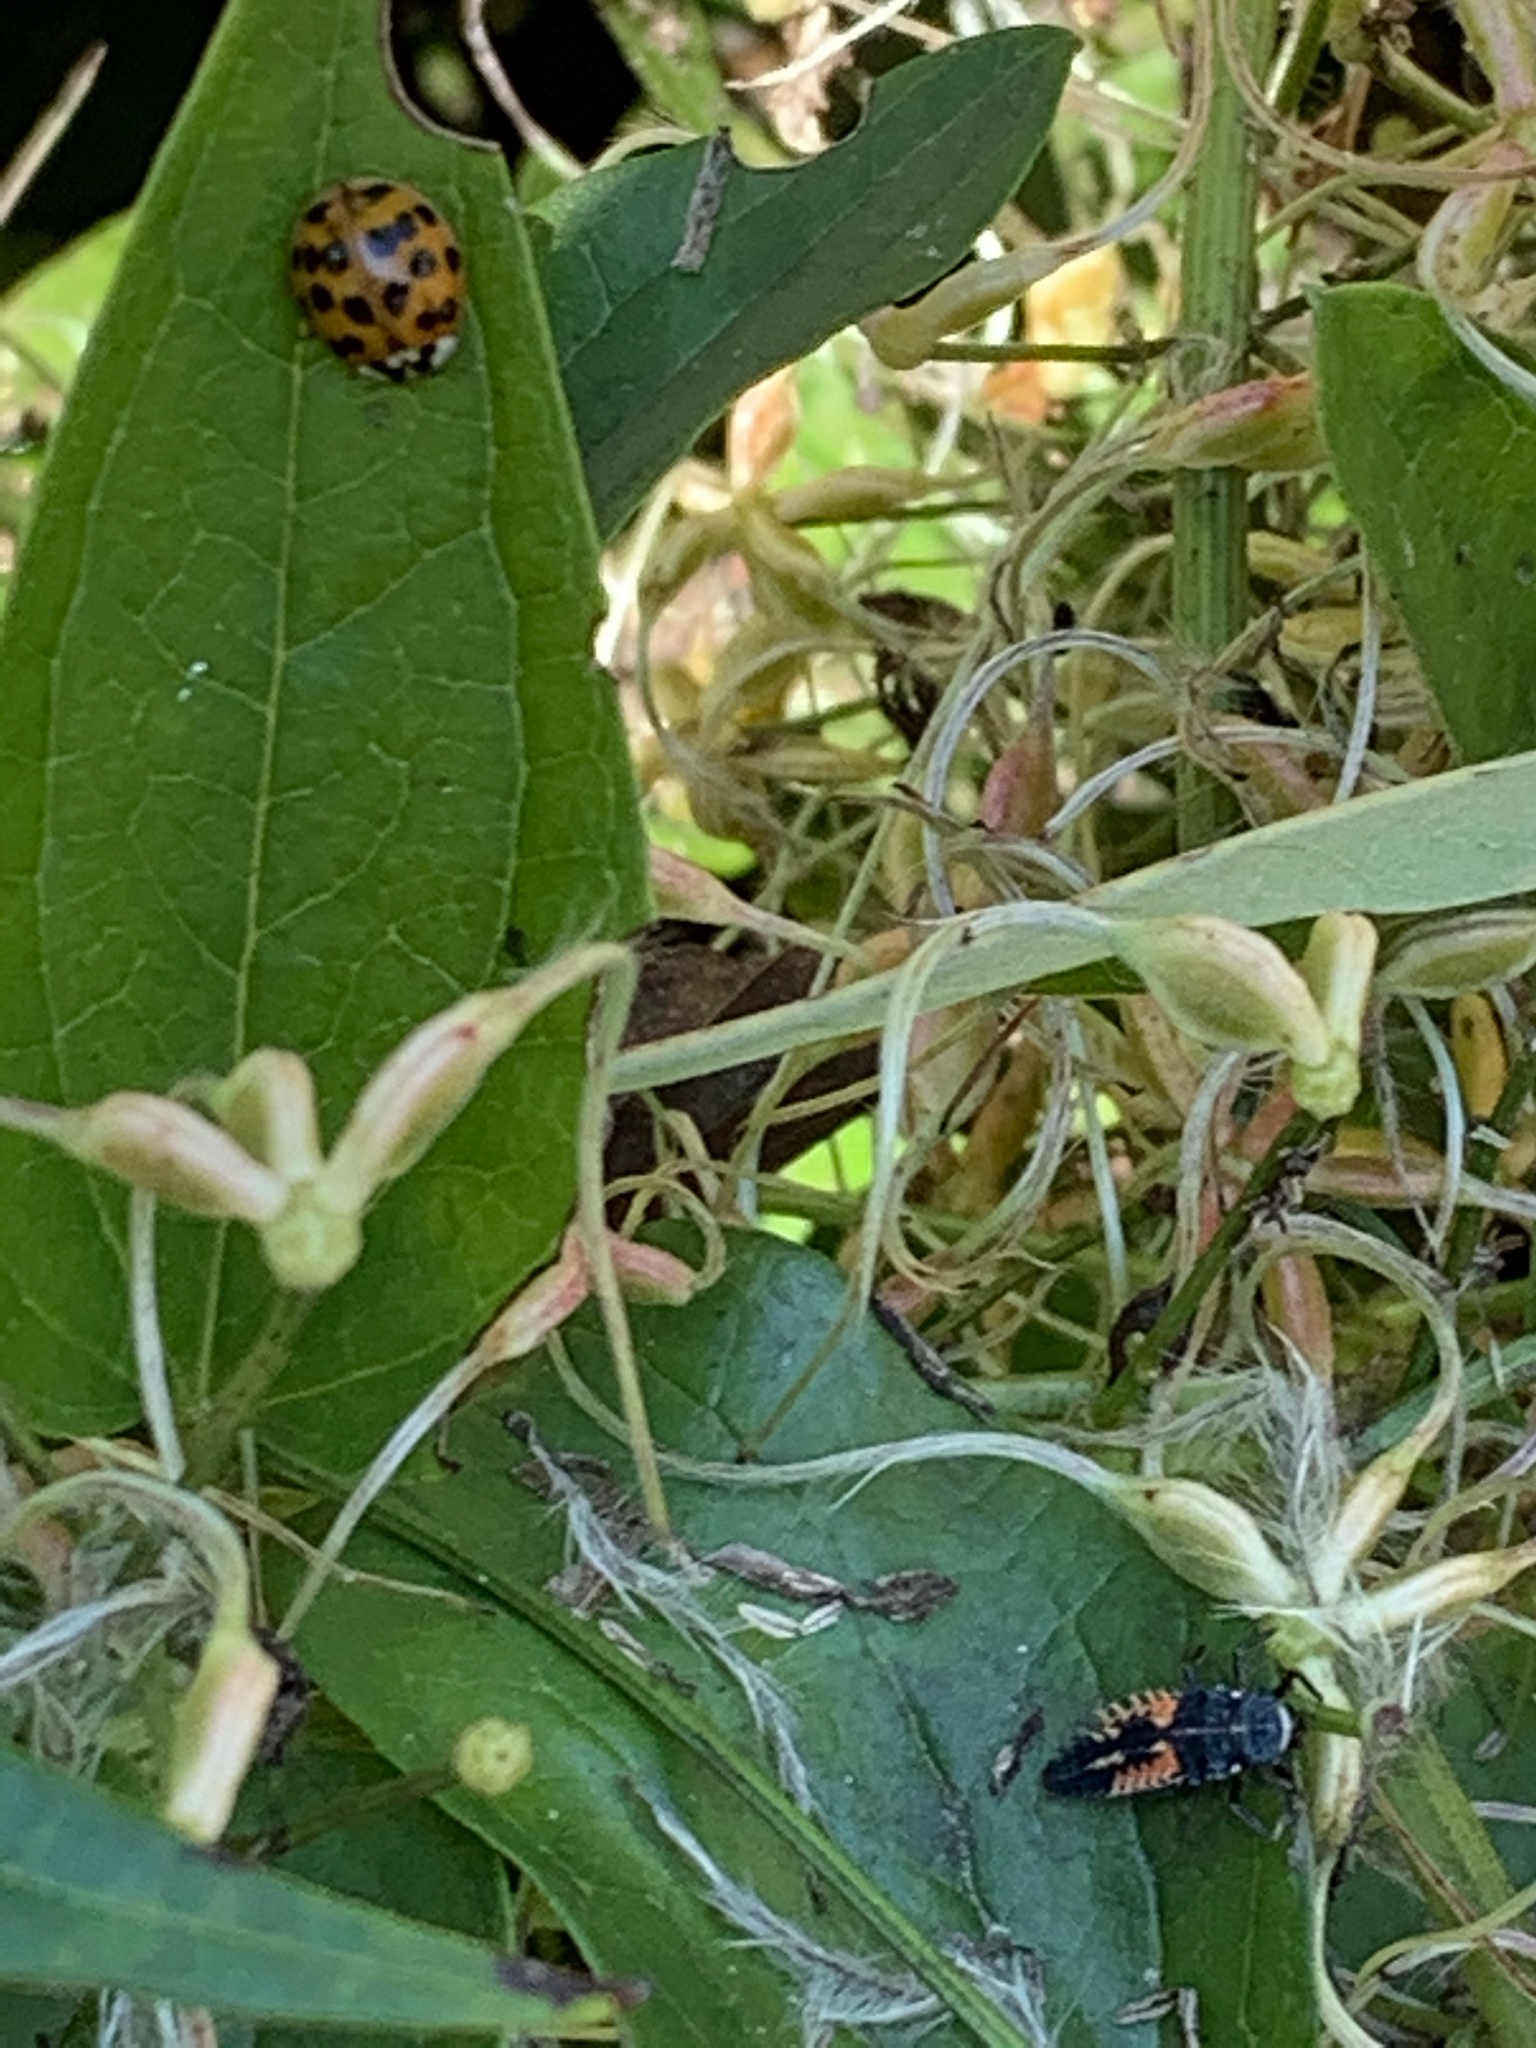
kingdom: Animalia
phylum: Arthropoda
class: Insecta
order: Coleoptera
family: Coccinellidae
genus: Harmonia
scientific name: Harmonia axyridis
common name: Harlequin ladybird
